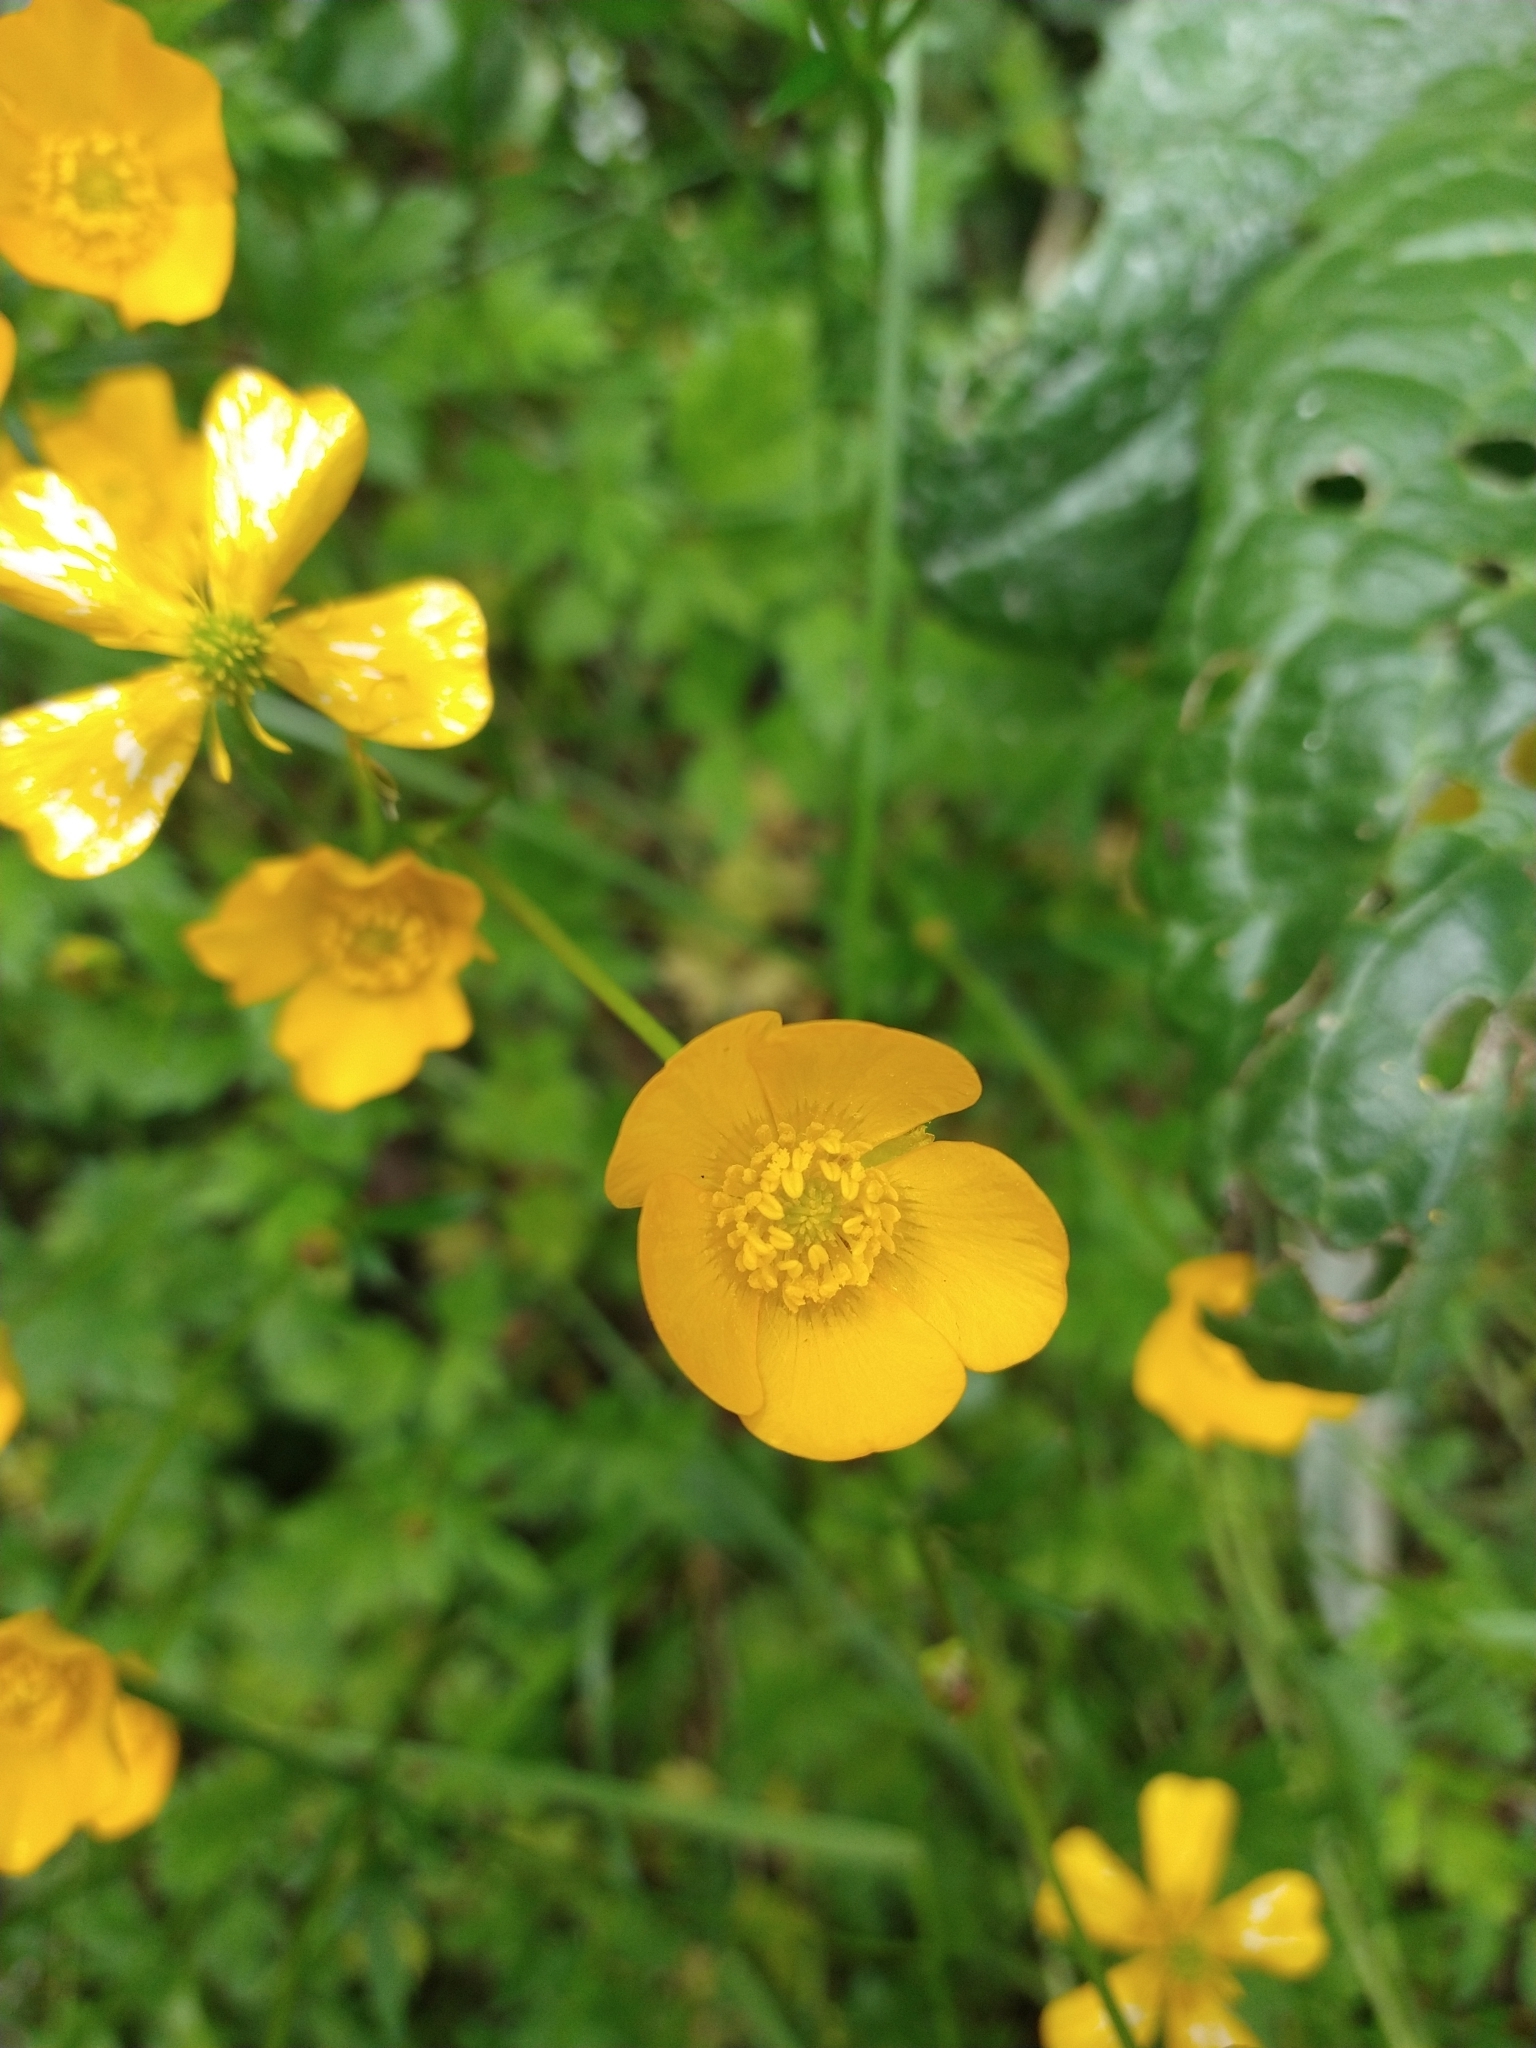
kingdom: Plantae
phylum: Tracheophyta
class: Magnoliopsida
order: Ranunculales
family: Ranunculaceae
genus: Ranunculus
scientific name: Ranunculus repens
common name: Creeping buttercup
